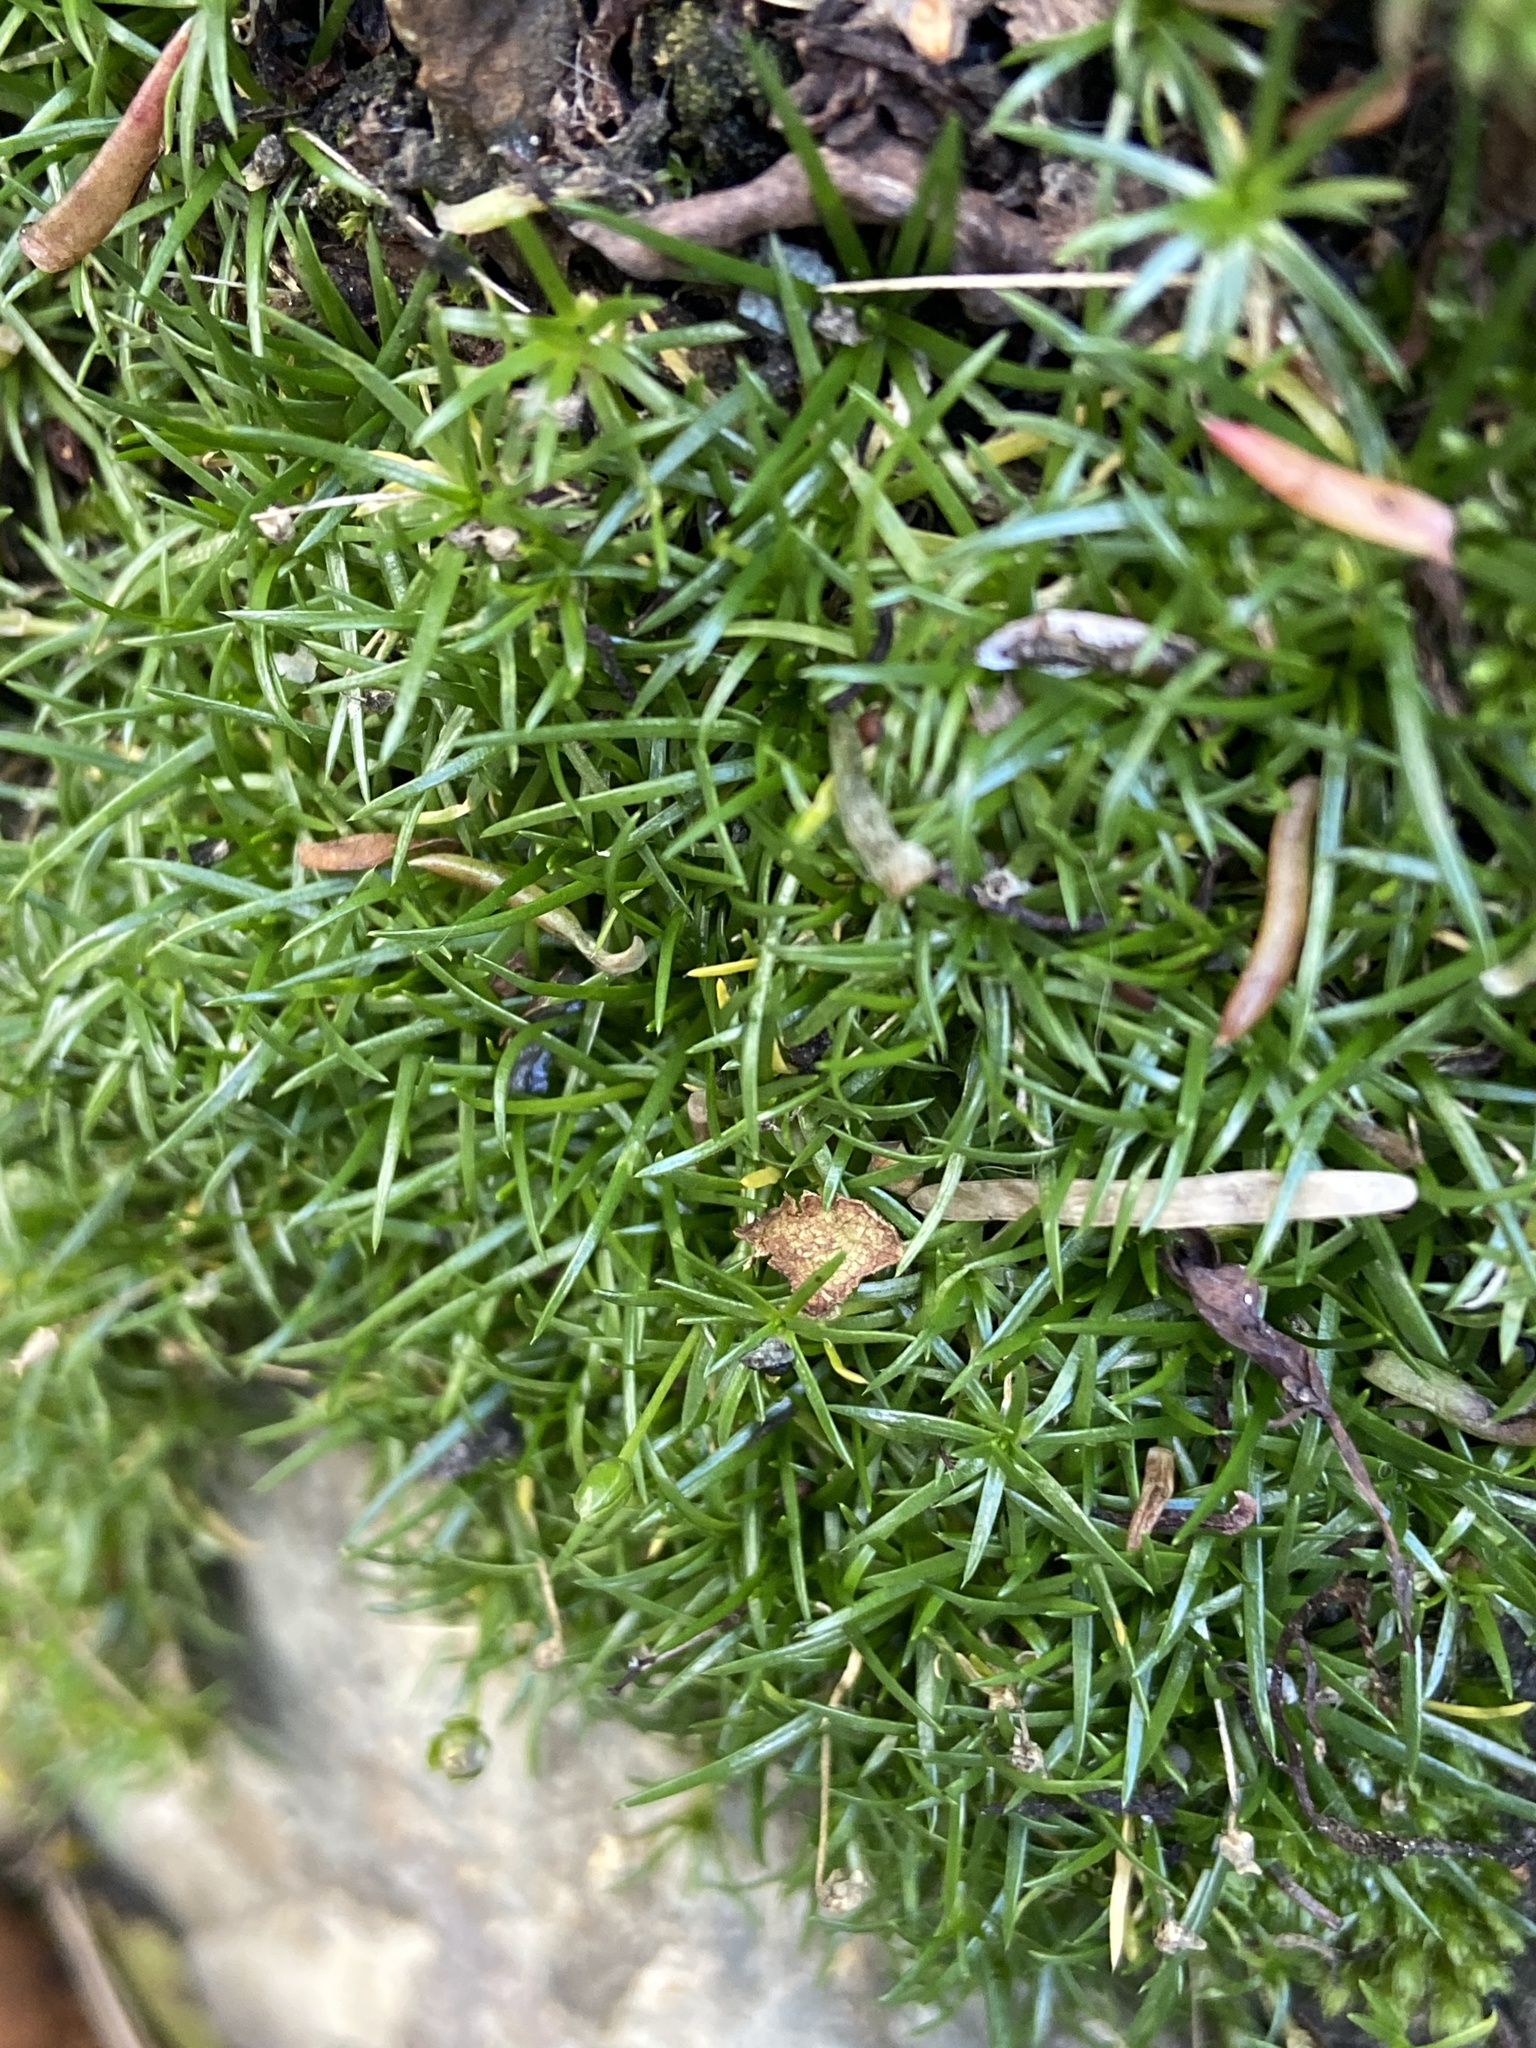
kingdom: Plantae
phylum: Tracheophyta
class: Magnoliopsida
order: Caryophyllales
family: Caryophyllaceae
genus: Sagina
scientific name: Sagina procumbens
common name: Procumbent pearlwort
